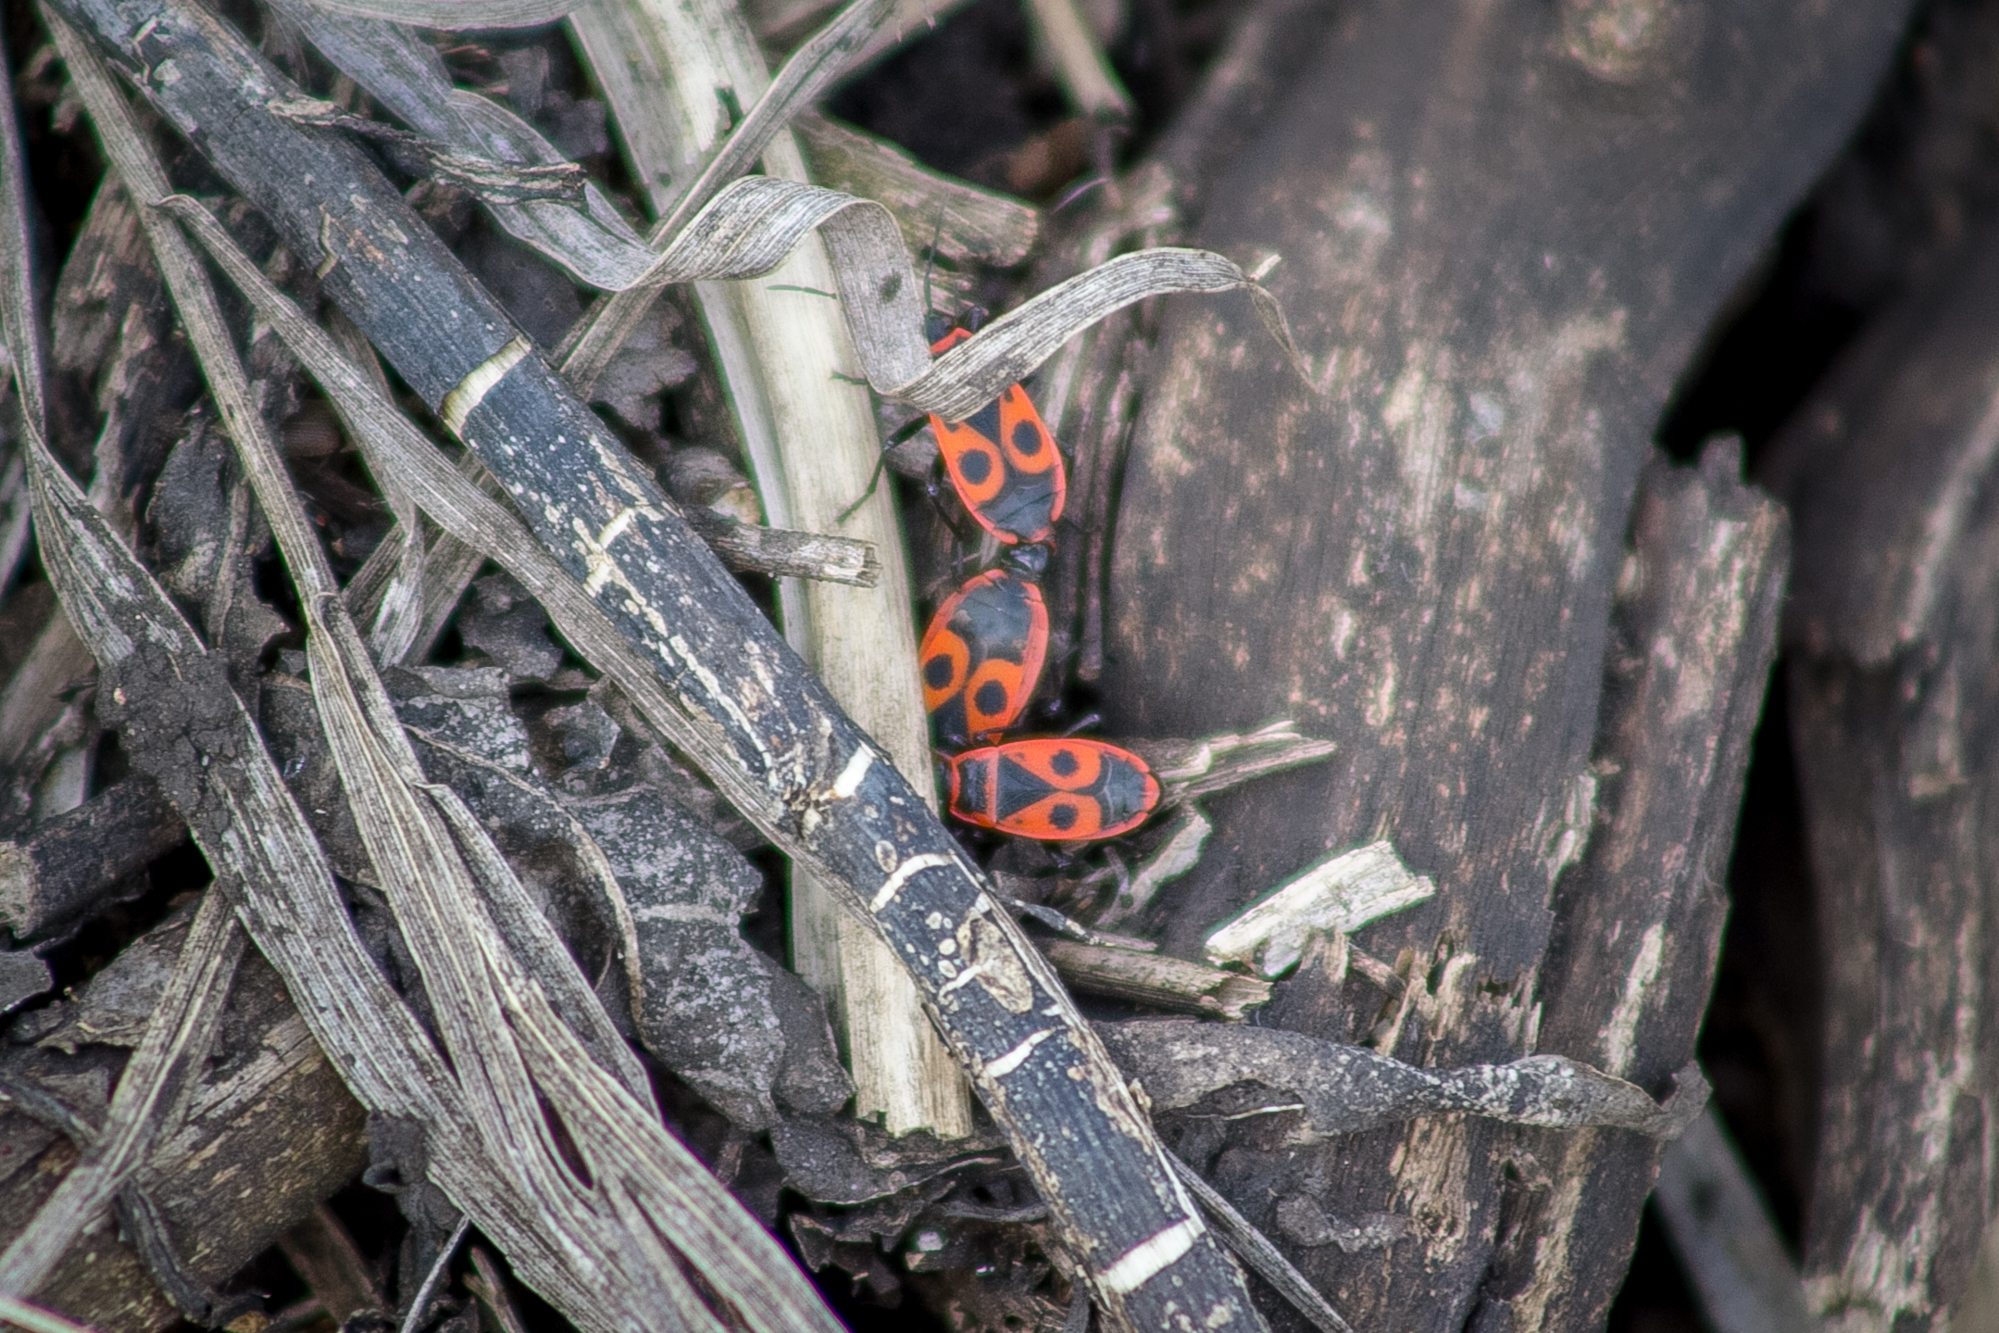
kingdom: Animalia
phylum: Arthropoda
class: Insecta
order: Hemiptera
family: Pyrrhocoridae
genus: Pyrrhocoris
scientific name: Pyrrhocoris apterus
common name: Firebug
